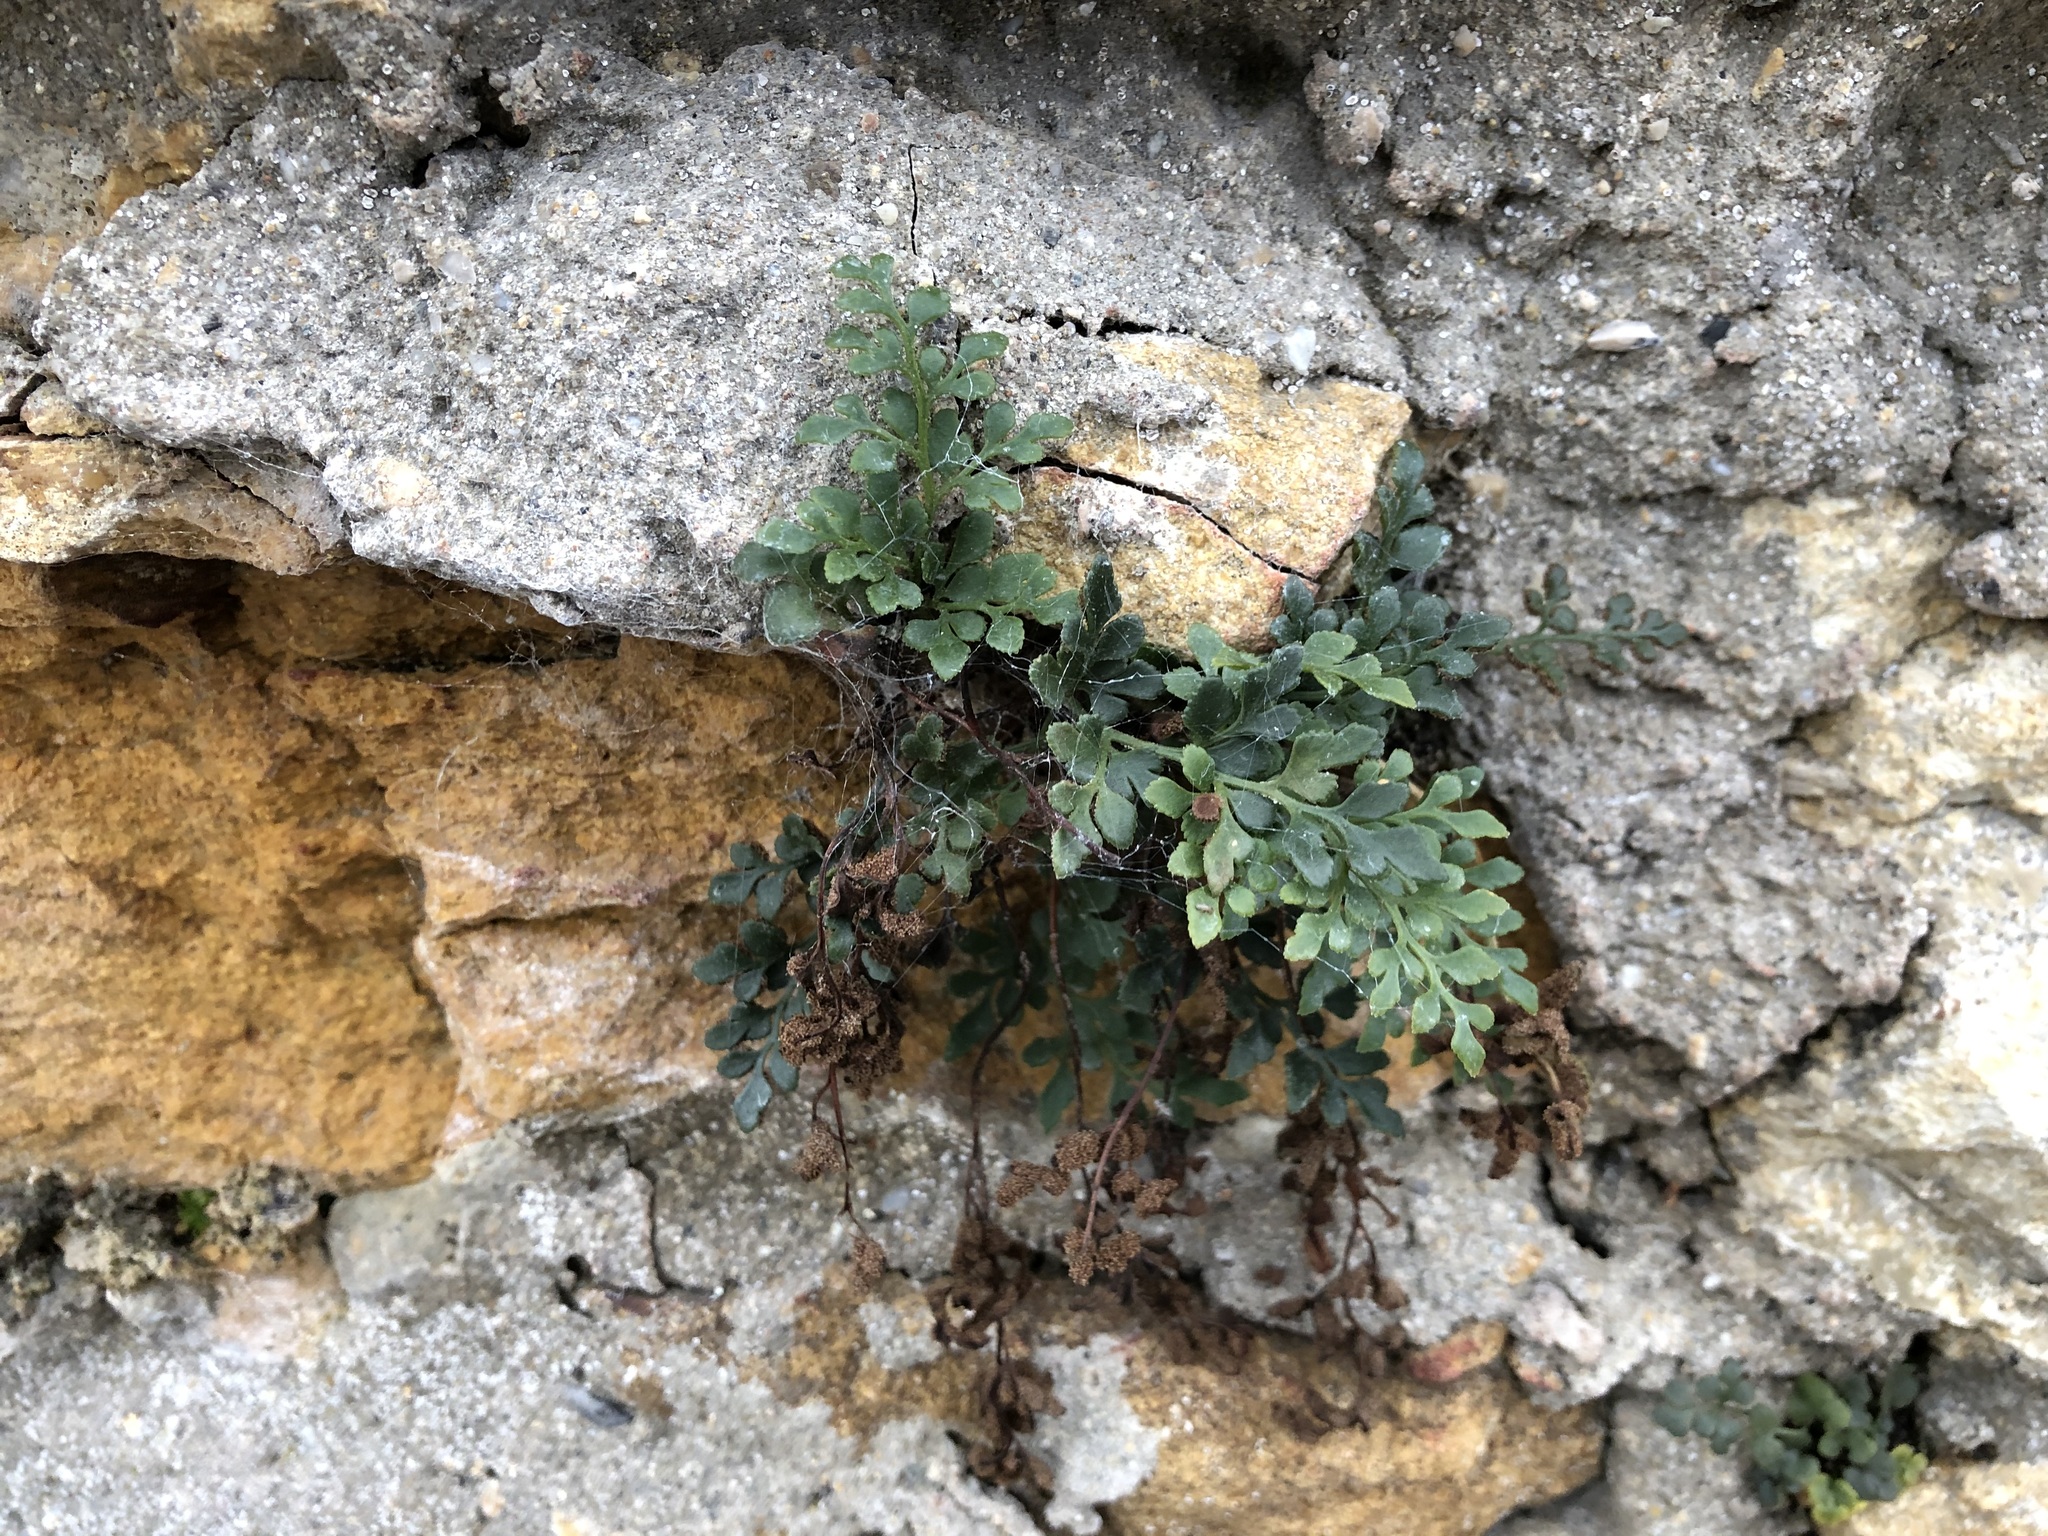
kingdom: Plantae
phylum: Tracheophyta
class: Polypodiopsida
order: Polypodiales
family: Aspleniaceae
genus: Asplenium
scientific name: Asplenium ruta-muraria
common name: Wall-rue
